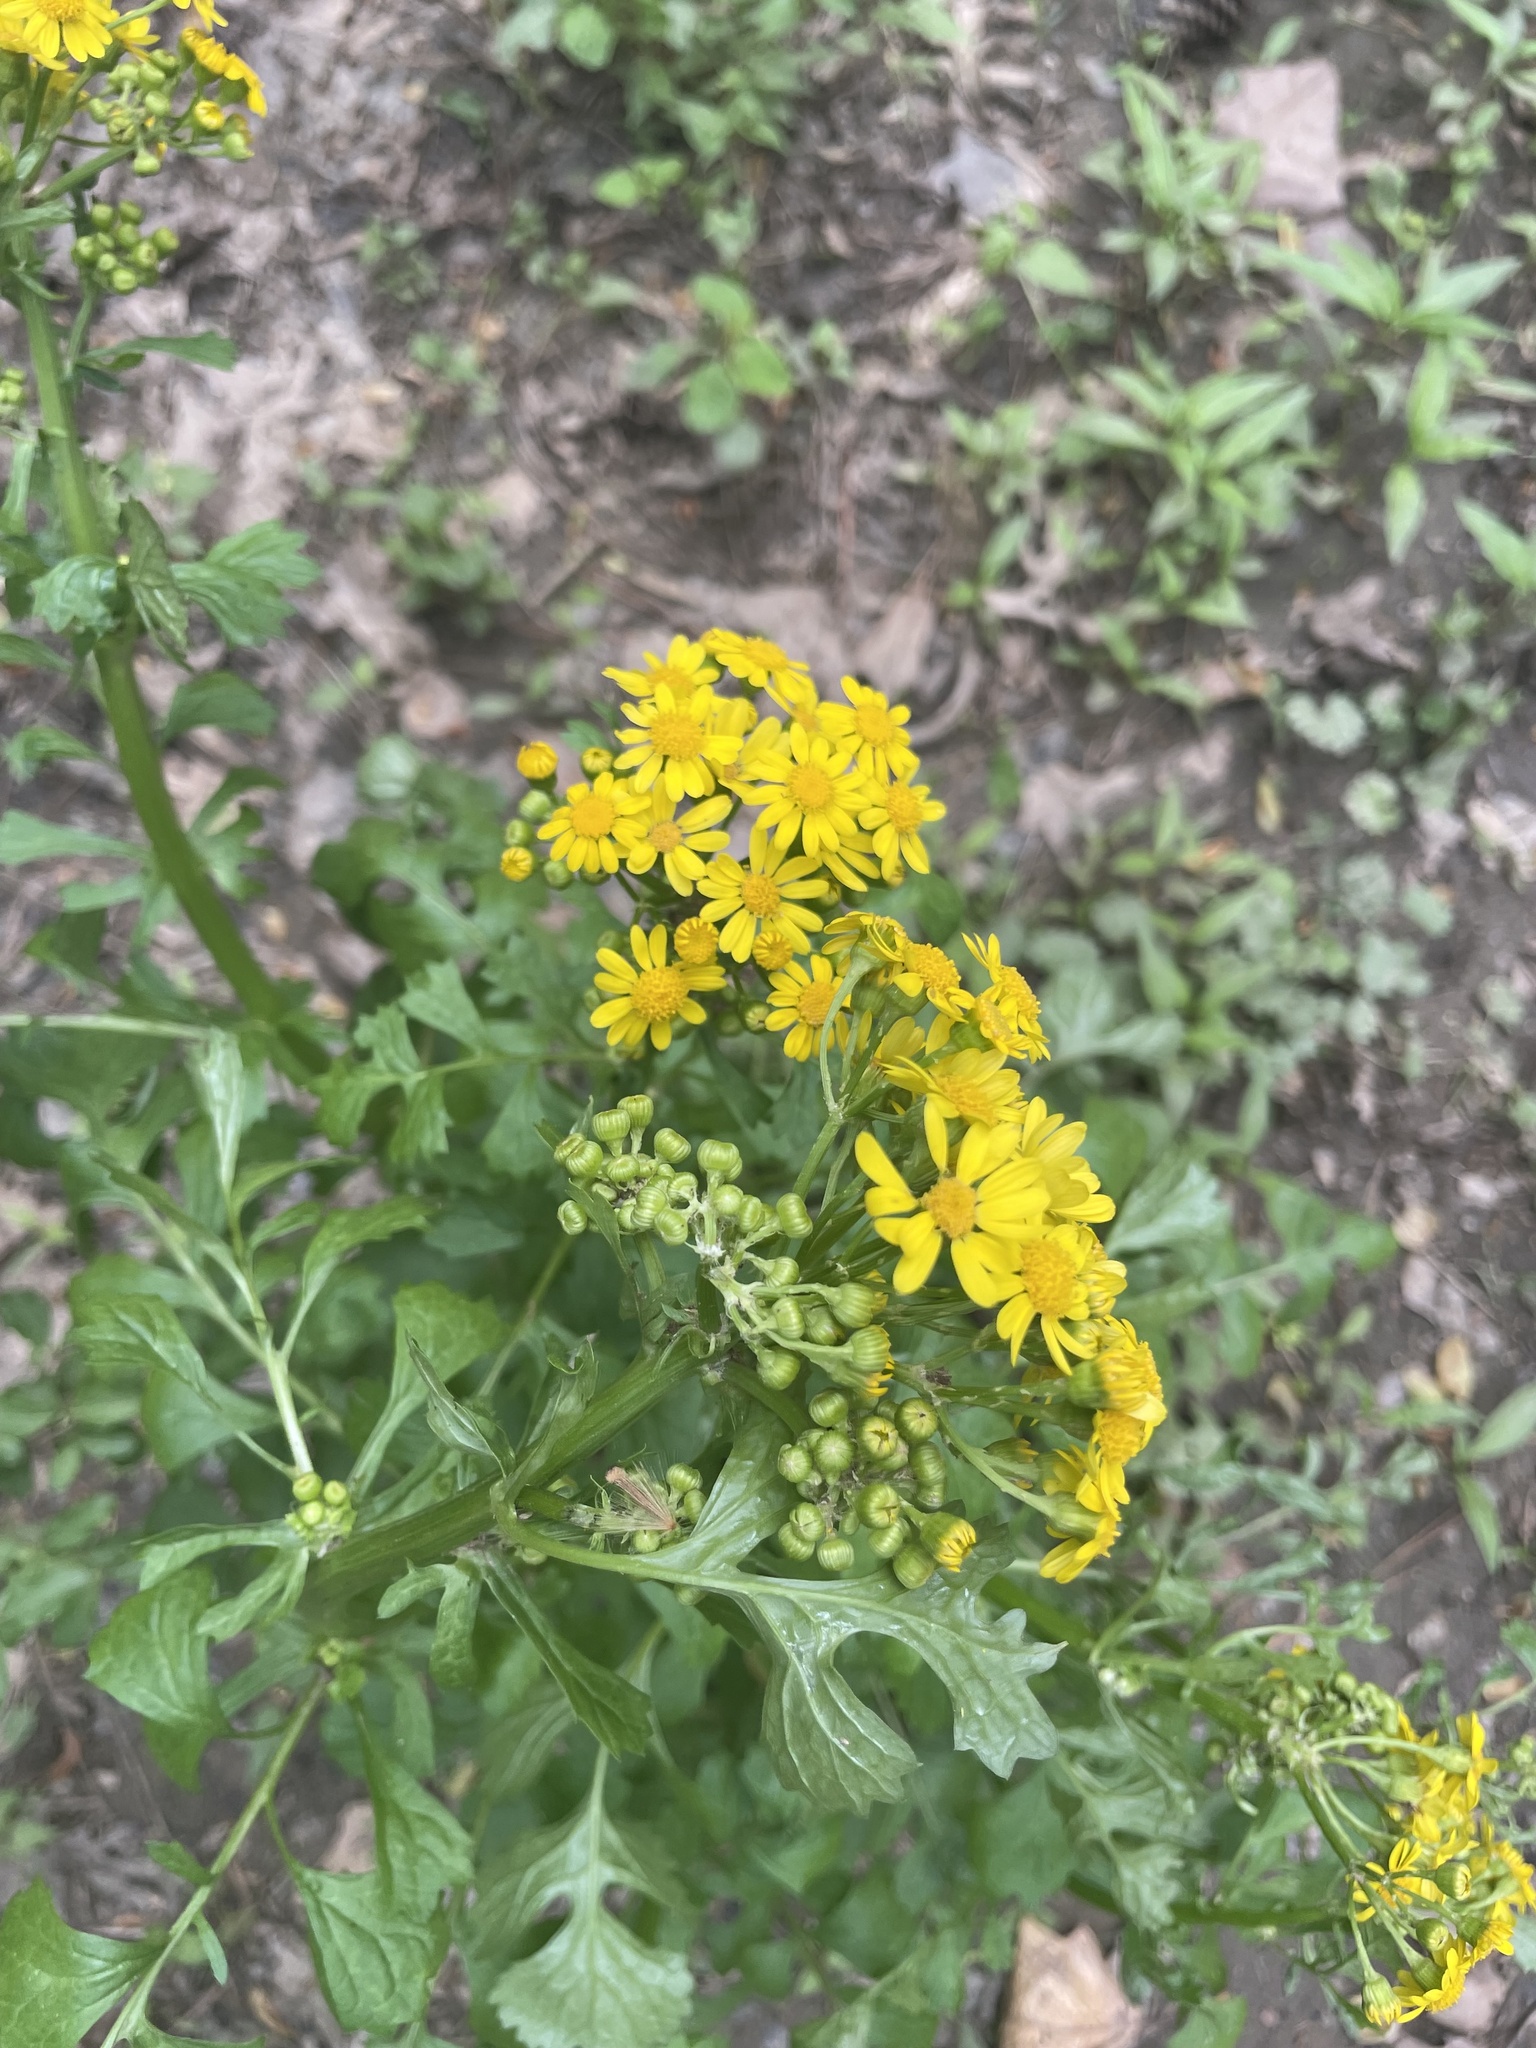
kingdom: Plantae
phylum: Tracheophyta
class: Magnoliopsida
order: Asterales
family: Asteraceae
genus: Packera
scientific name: Packera glabella
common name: Butterweed
